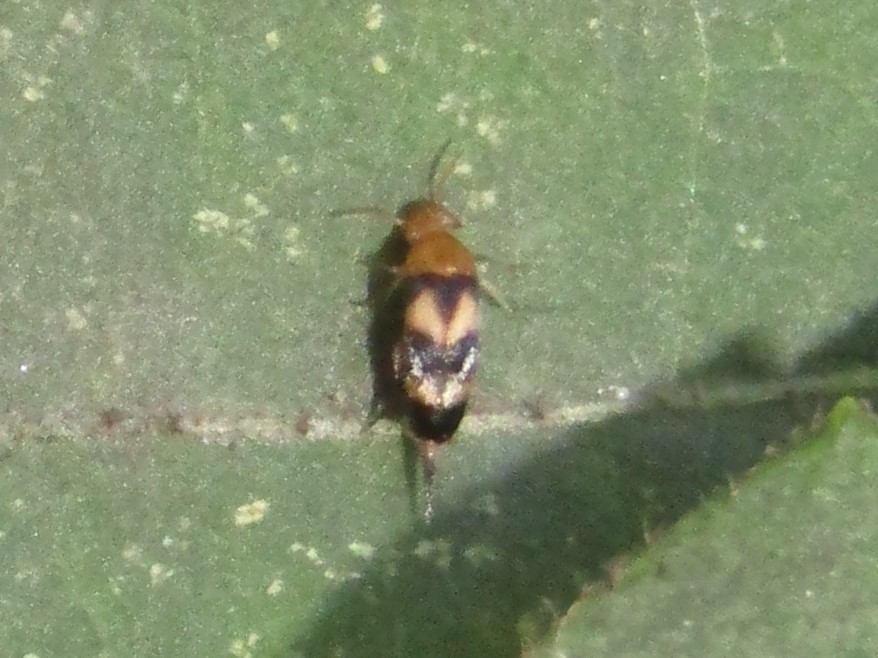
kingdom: Animalia
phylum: Arthropoda
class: Insecta
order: Coleoptera
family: Mordellidae
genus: Mordellistena
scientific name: Mordellistena trifasciata
